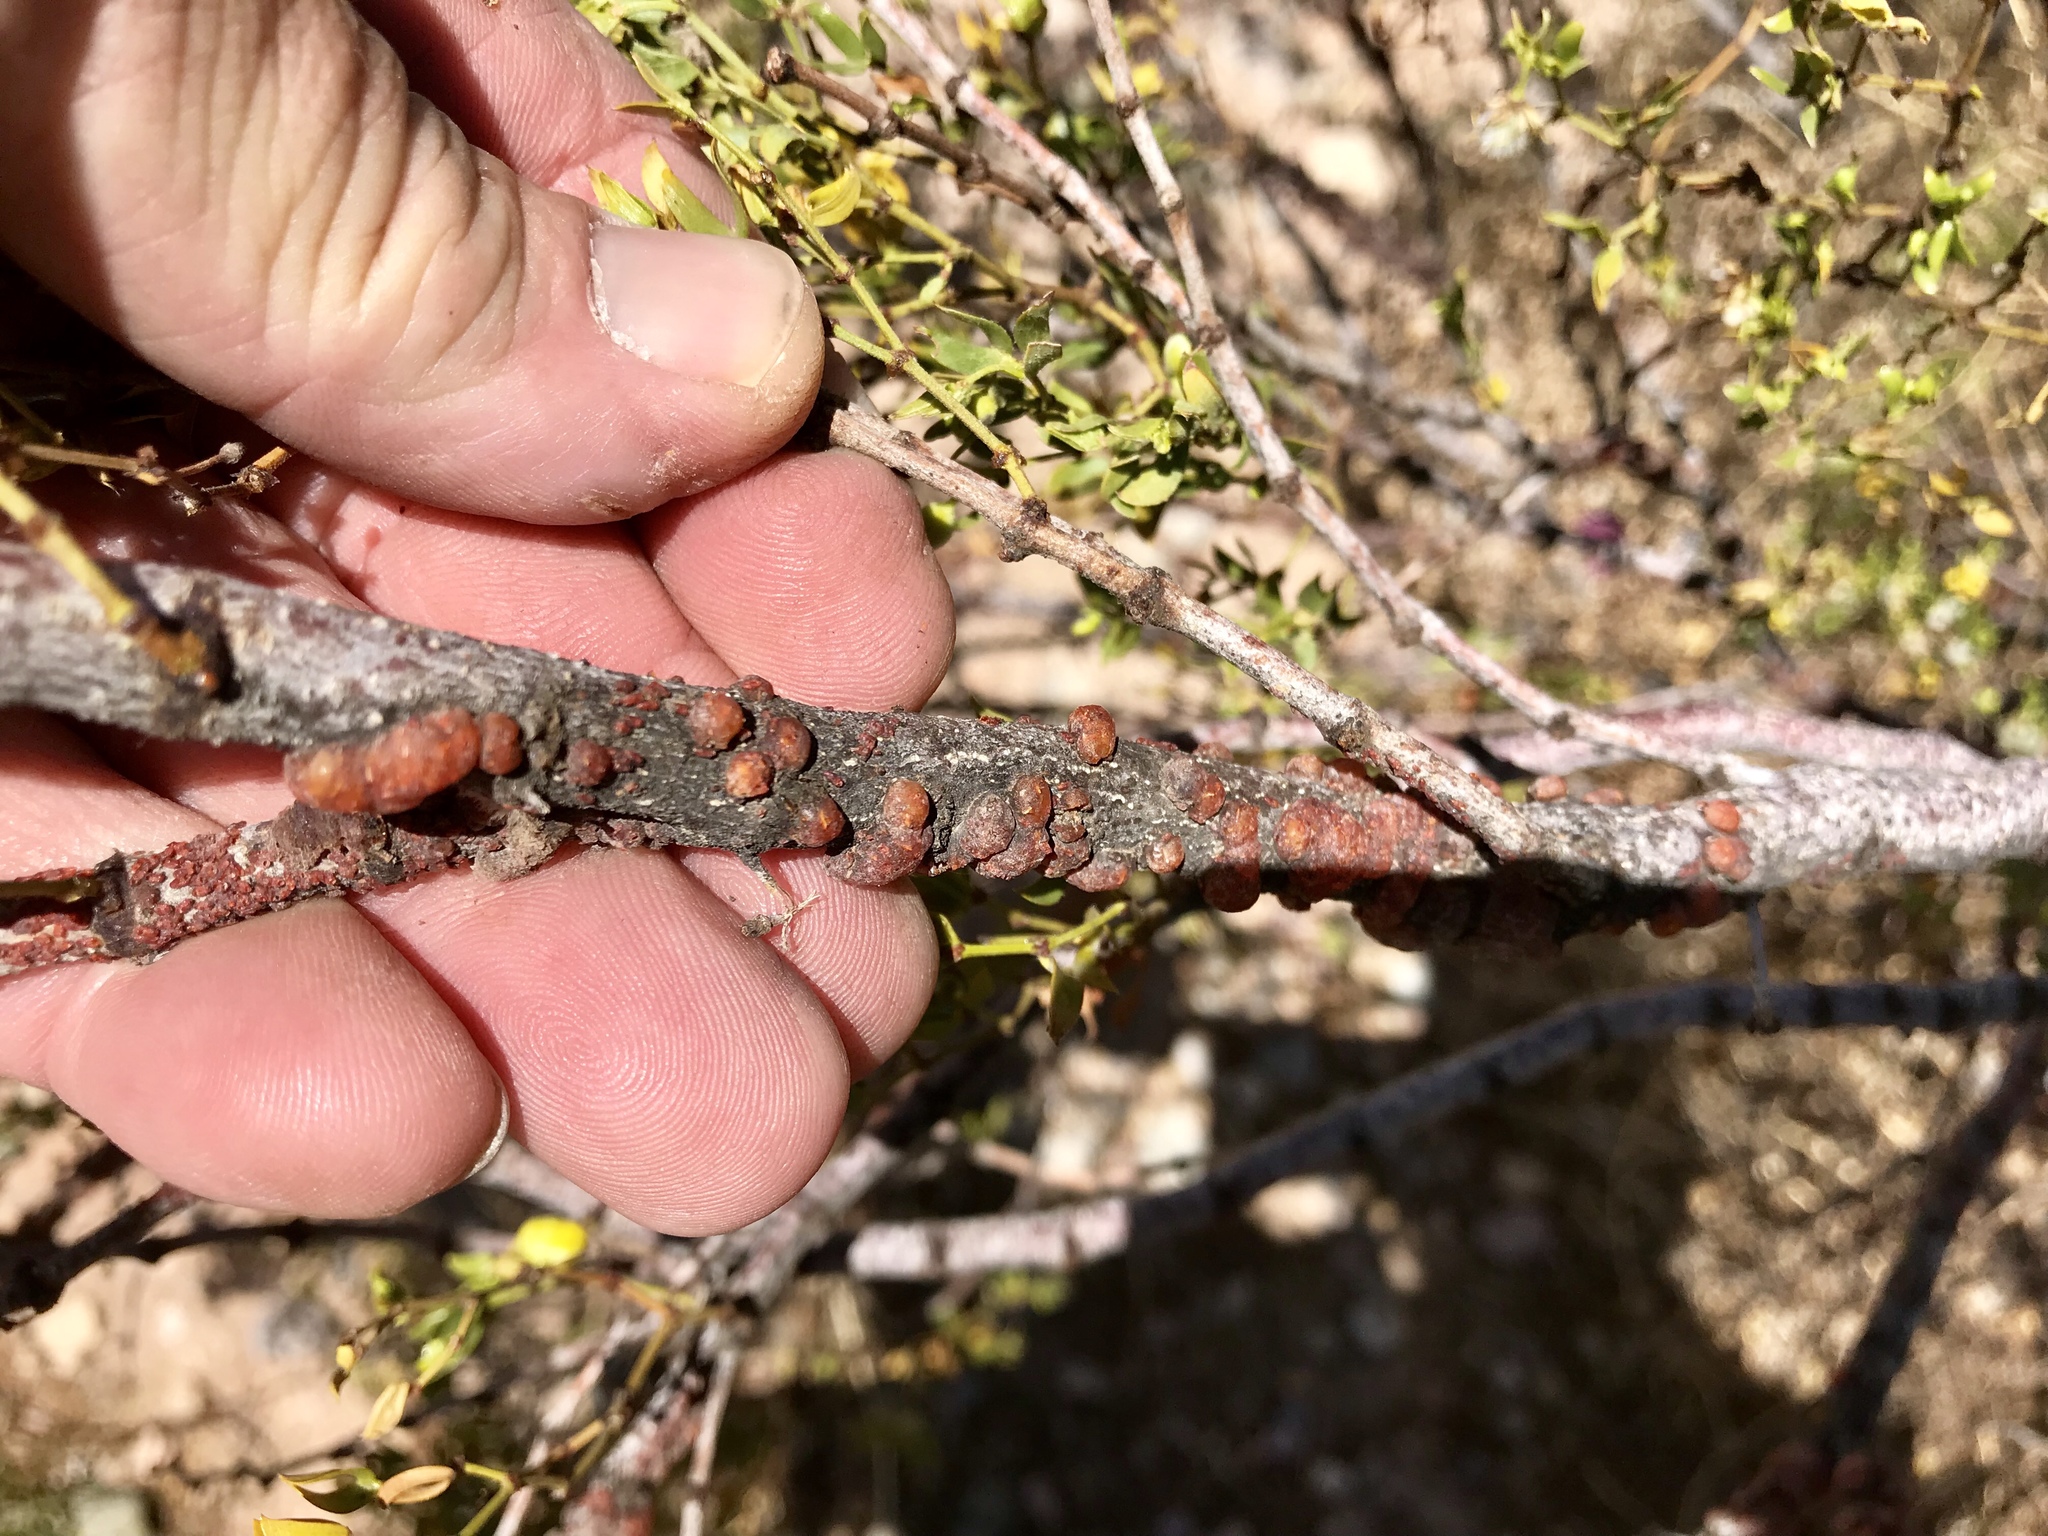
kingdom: Animalia
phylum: Arthropoda
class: Insecta
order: Hemiptera
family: Kerriidae
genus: Tachardiella
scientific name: Tachardiella larreae
